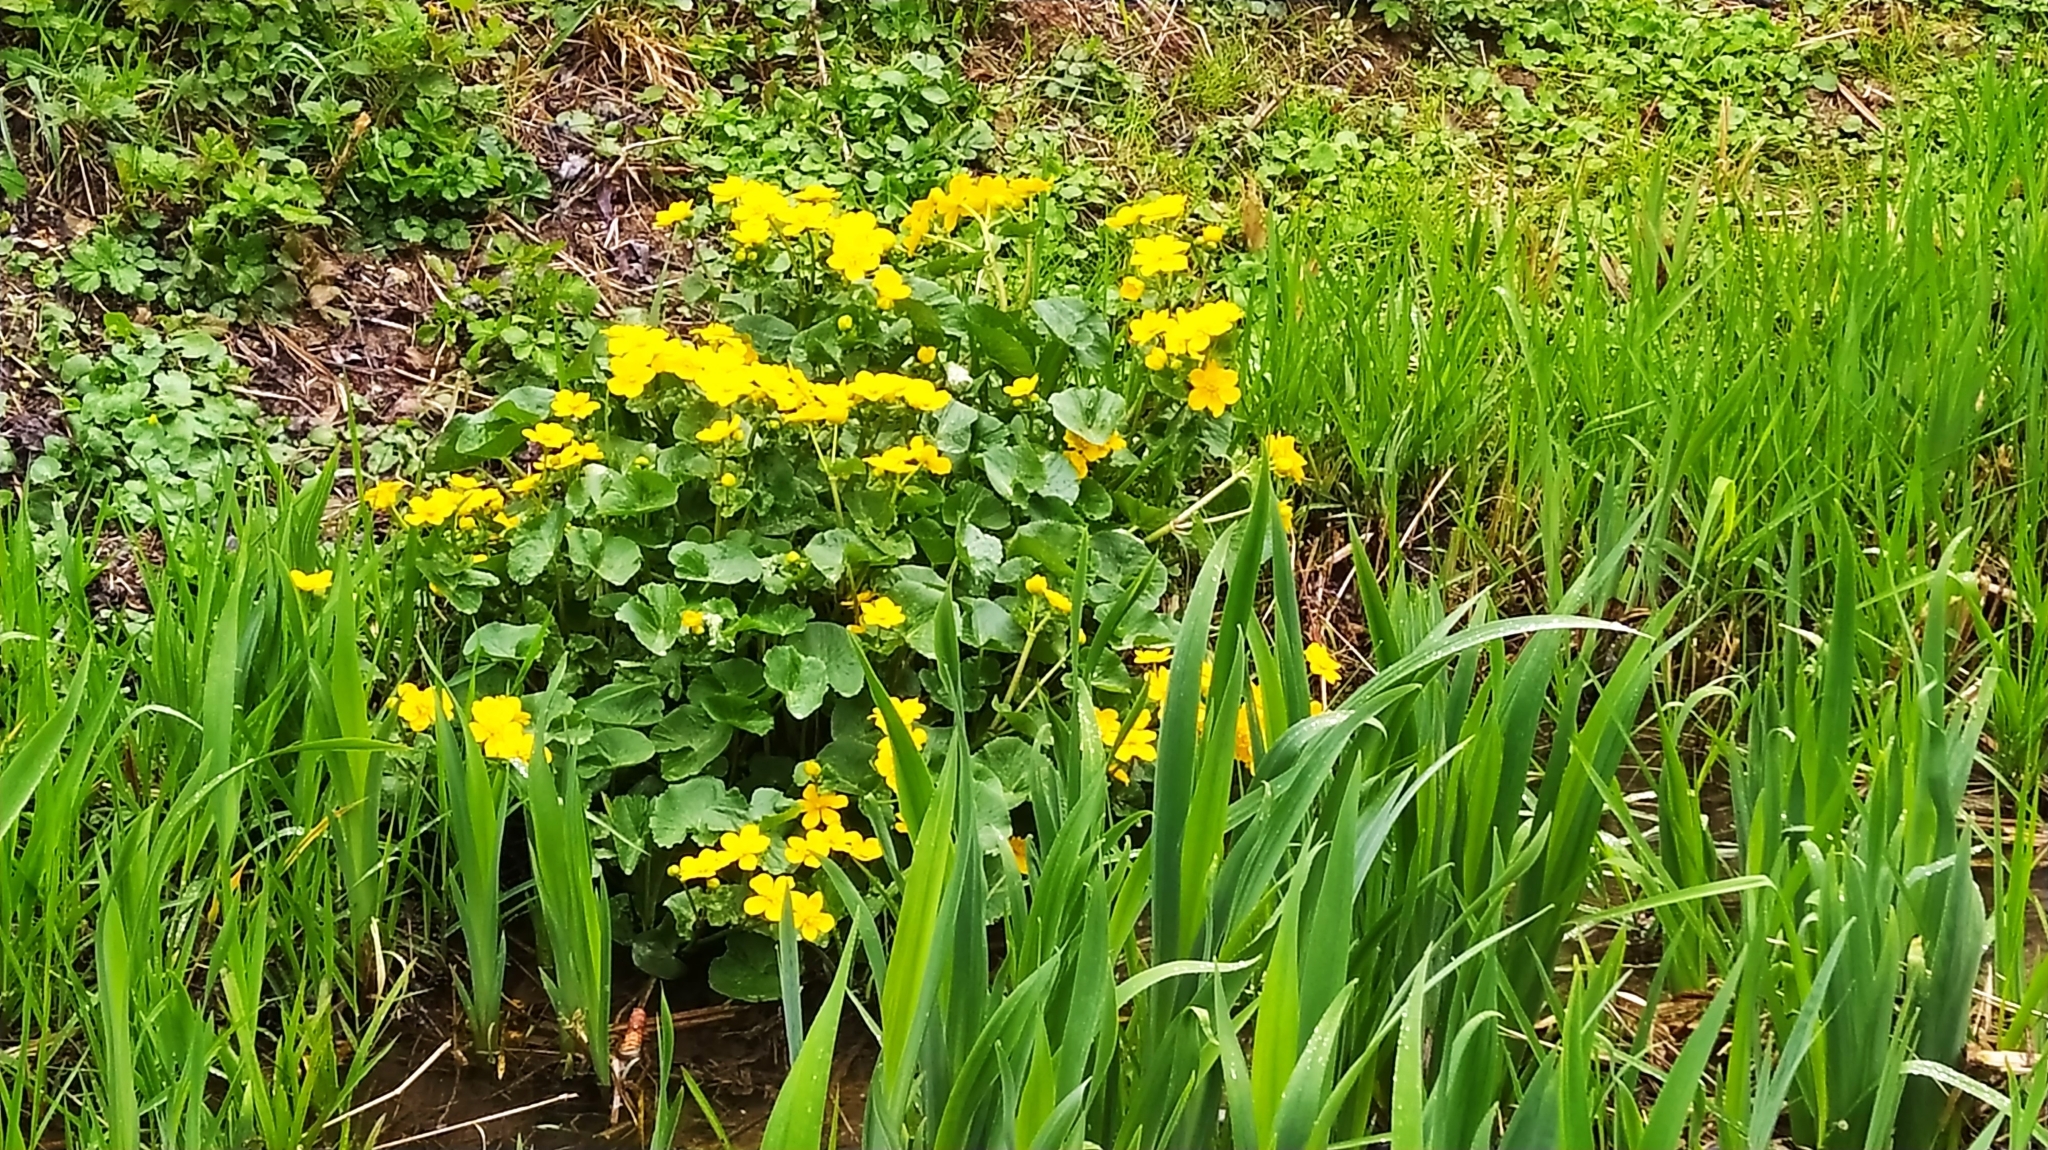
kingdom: Plantae
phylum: Tracheophyta
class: Magnoliopsida
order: Ranunculales
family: Ranunculaceae
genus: Caltha
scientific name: Caltha palustris
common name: Marsh marigold
